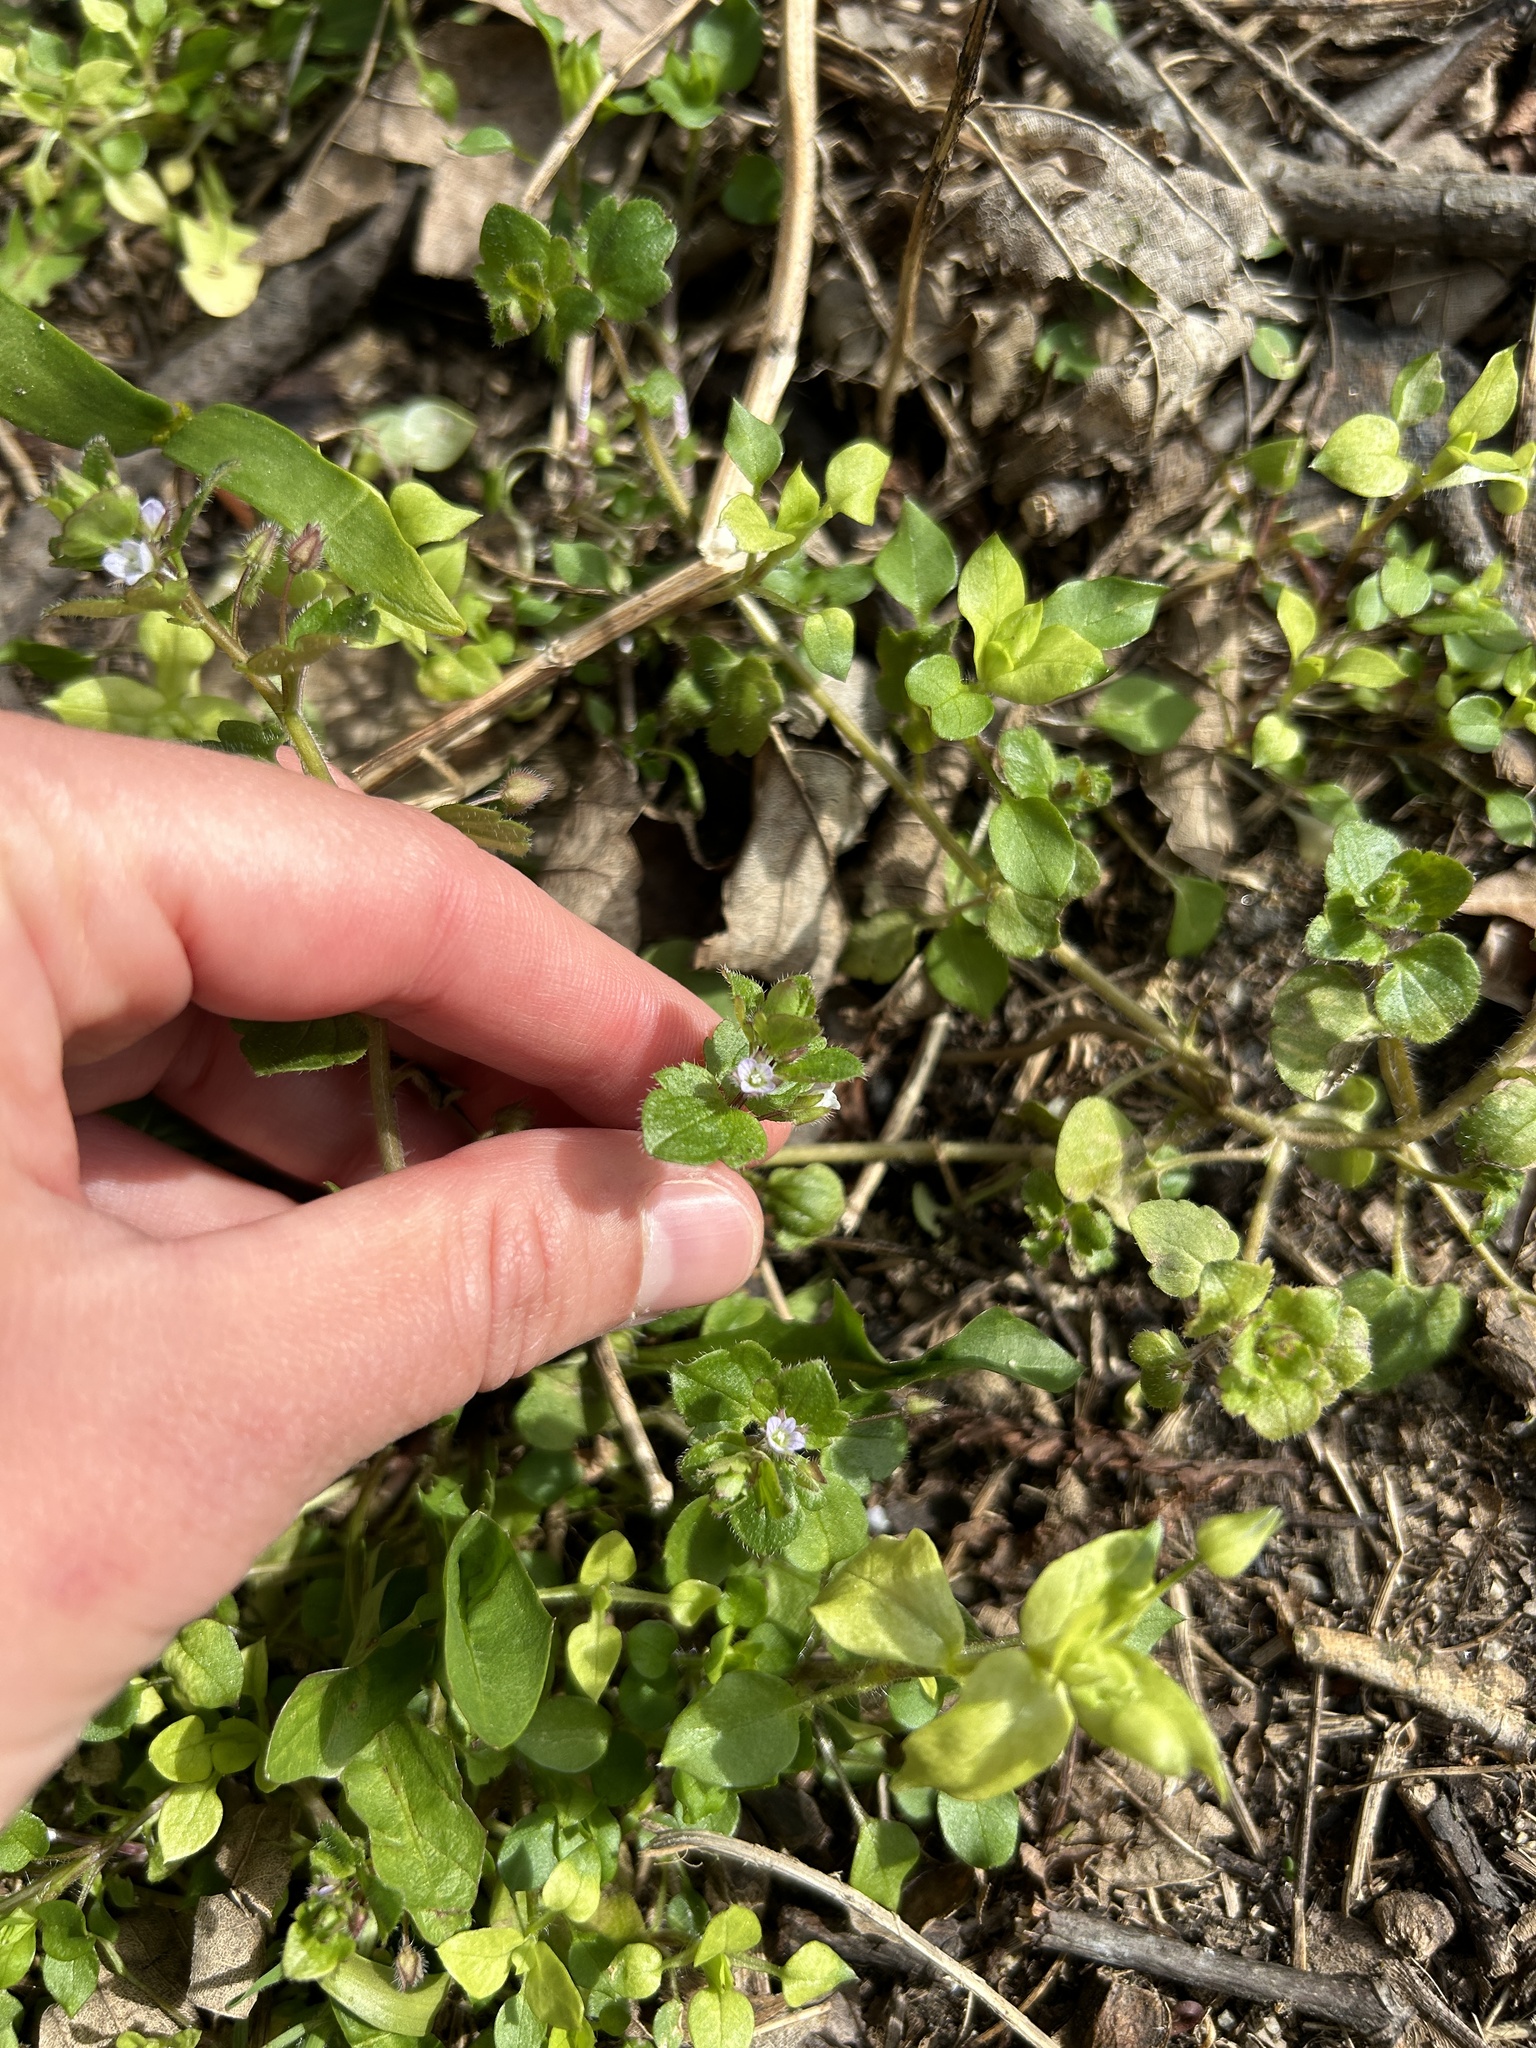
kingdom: Plantae
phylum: Tracheophyta
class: Magnoliopsida
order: Lamiales
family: Plantaginaceae
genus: Veronica
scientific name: Veronica sublobata
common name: False ivy-leaved speedwell
